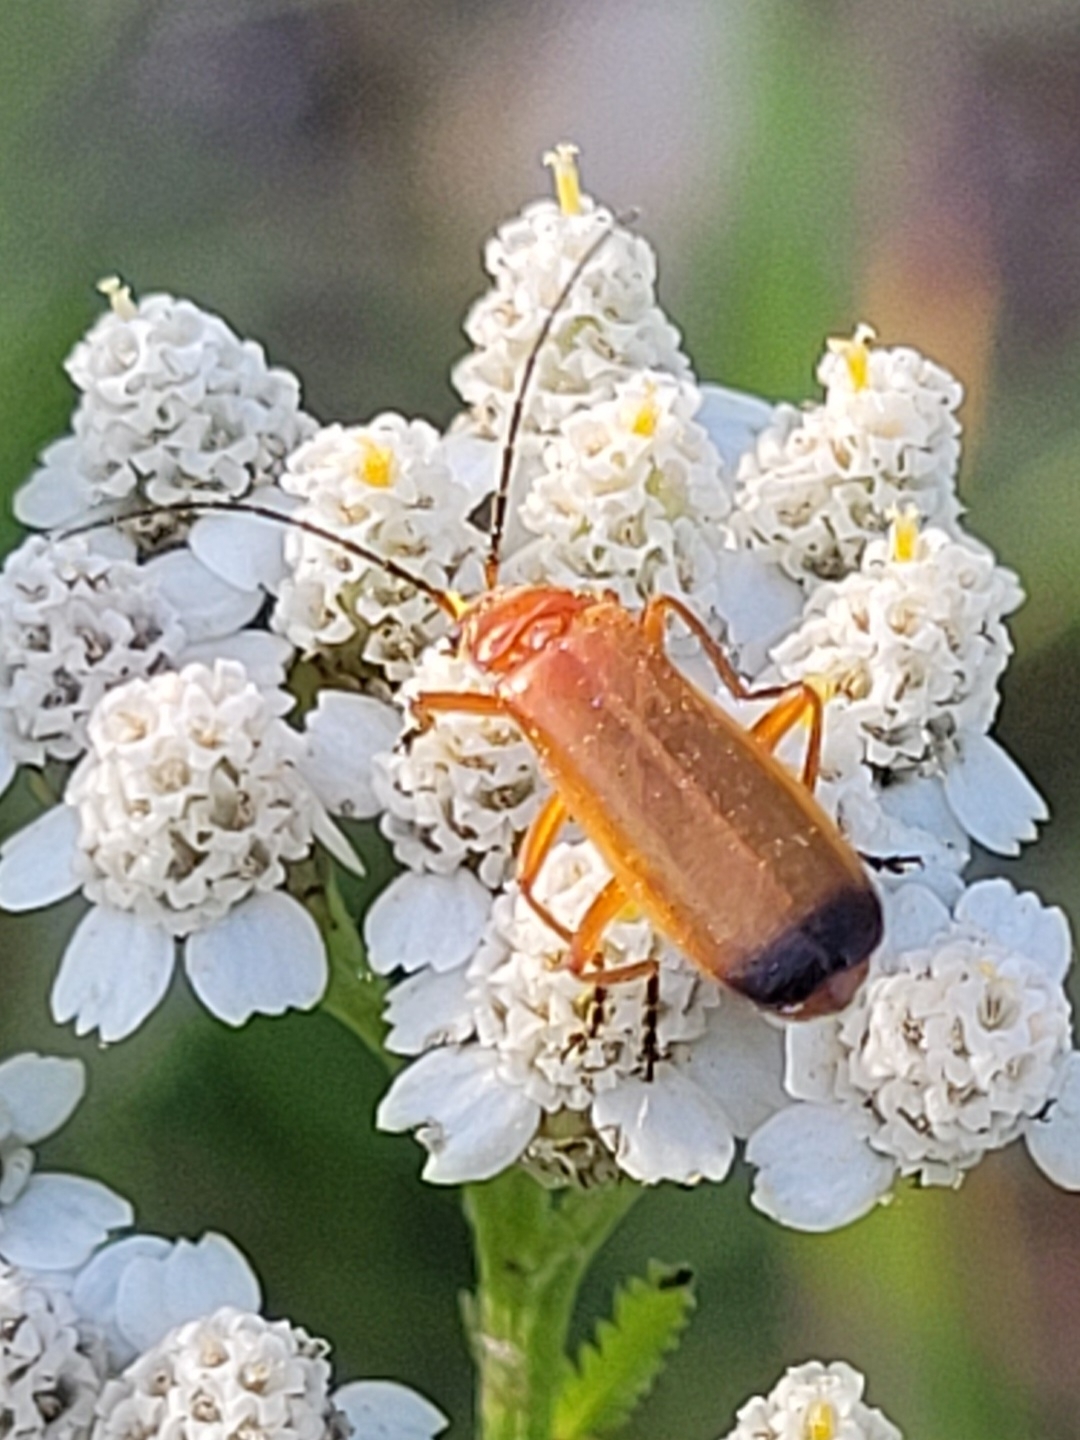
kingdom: Animalia
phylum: Arthropoda
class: Insecta
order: Coleoptera
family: Cantharidae
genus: Rhagonycha
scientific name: Rhagonycha fulva
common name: Common red soldier beetle
